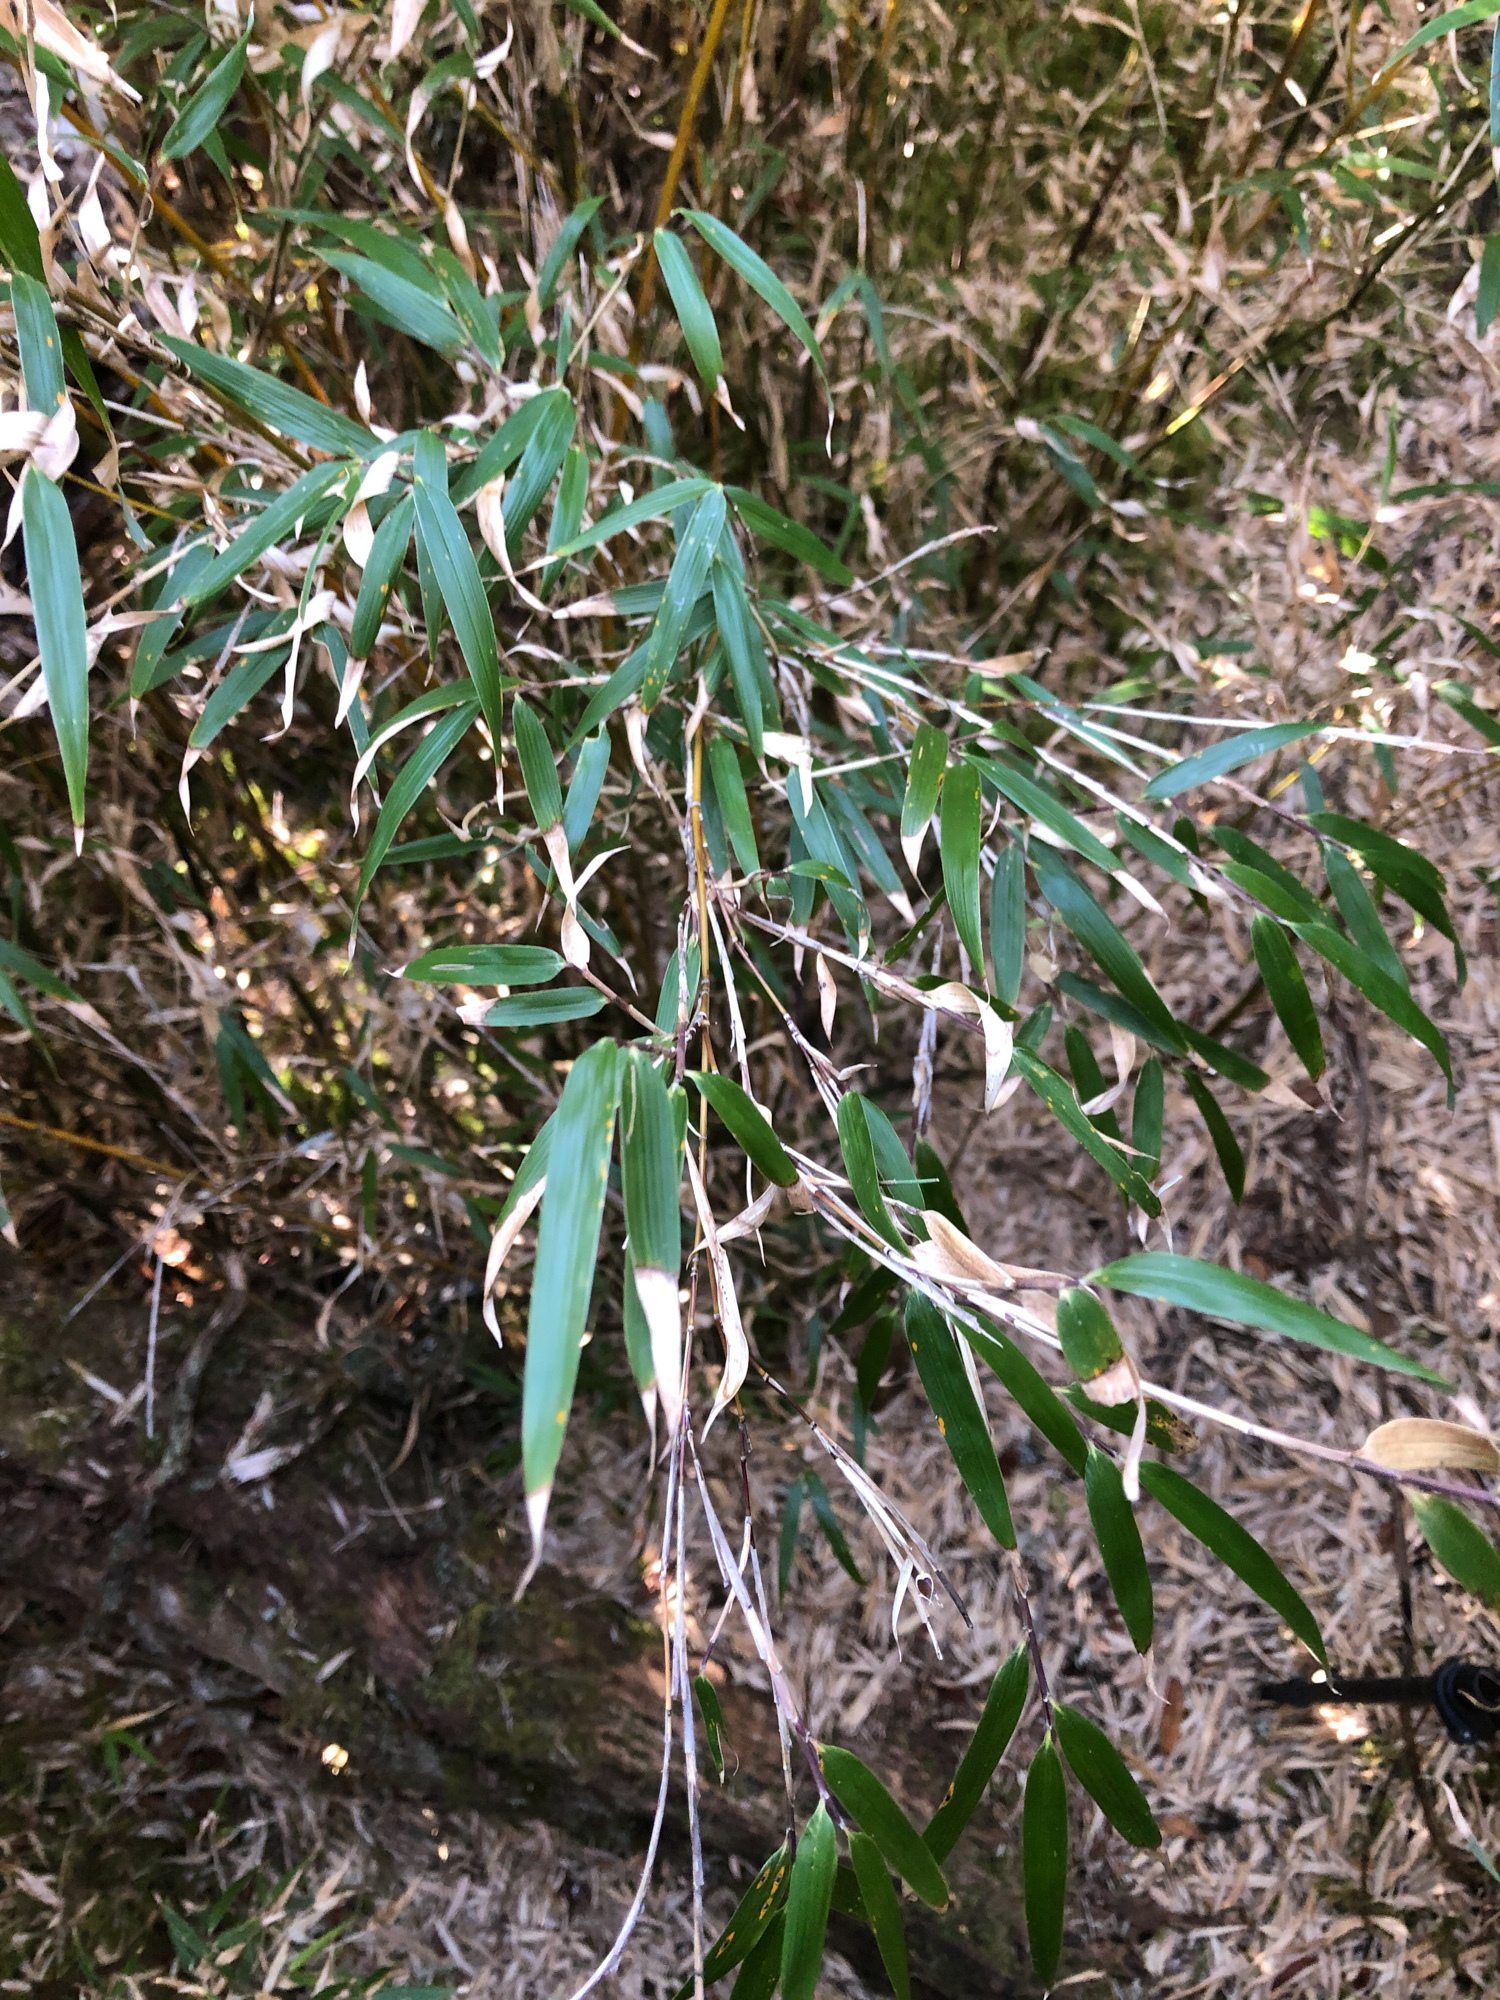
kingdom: Plantae
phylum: Tracheophyta
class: Liliopsida
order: Poales
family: Poaceae
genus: Yushania
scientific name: Yushania niitakayamensis
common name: Yushan cane
